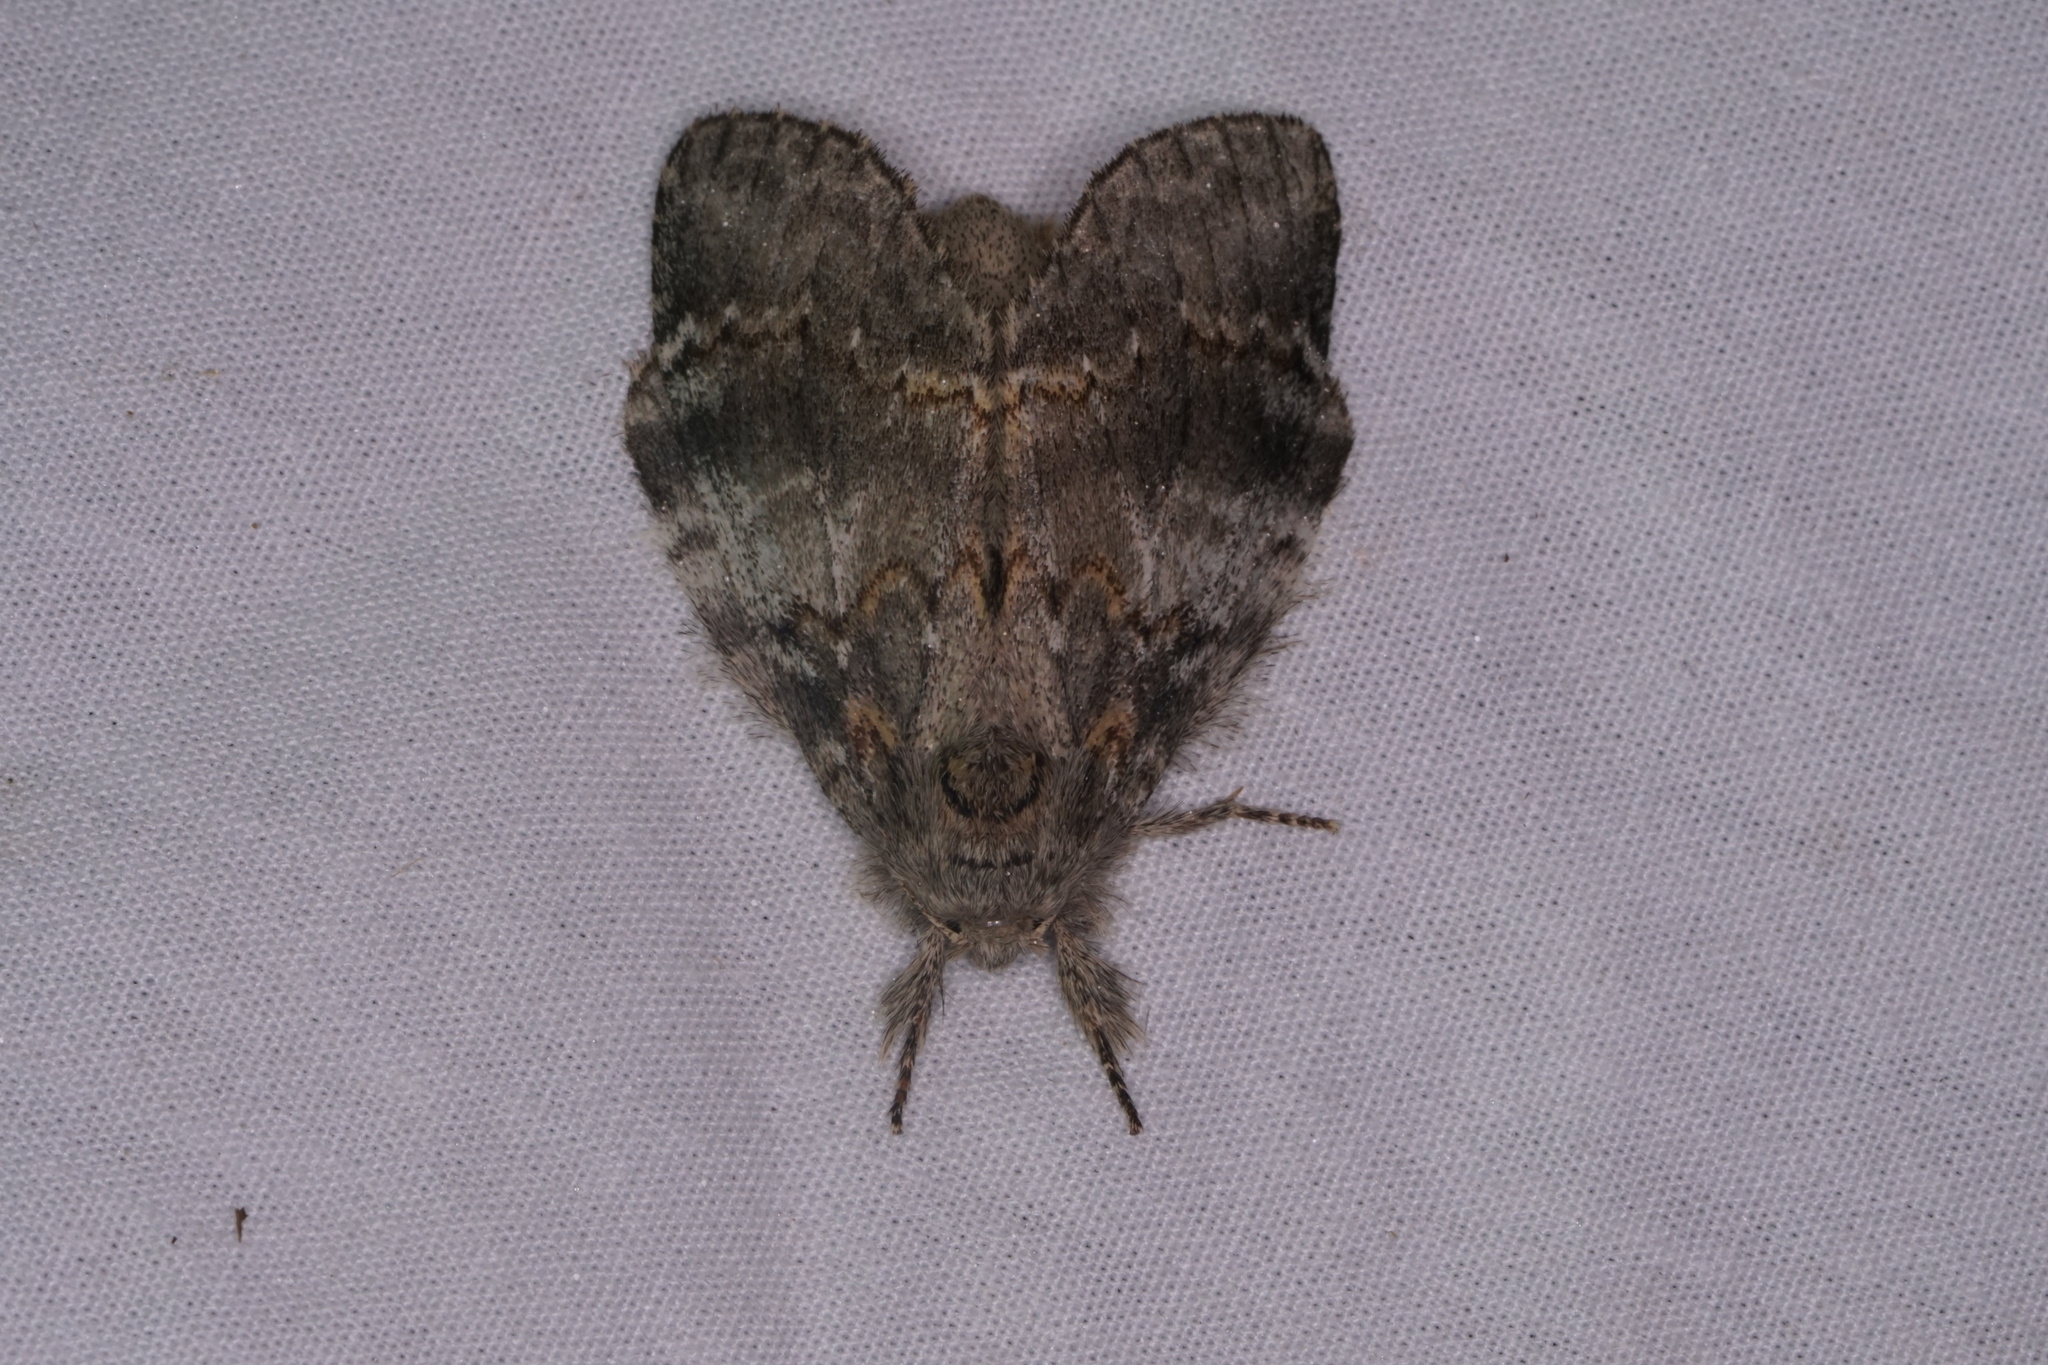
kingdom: Animalia
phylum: Arthropoda
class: Insecta
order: Lepidoptera
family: Notodontidae
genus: Peridea
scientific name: Peridea angulosa
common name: Angulose prominent
